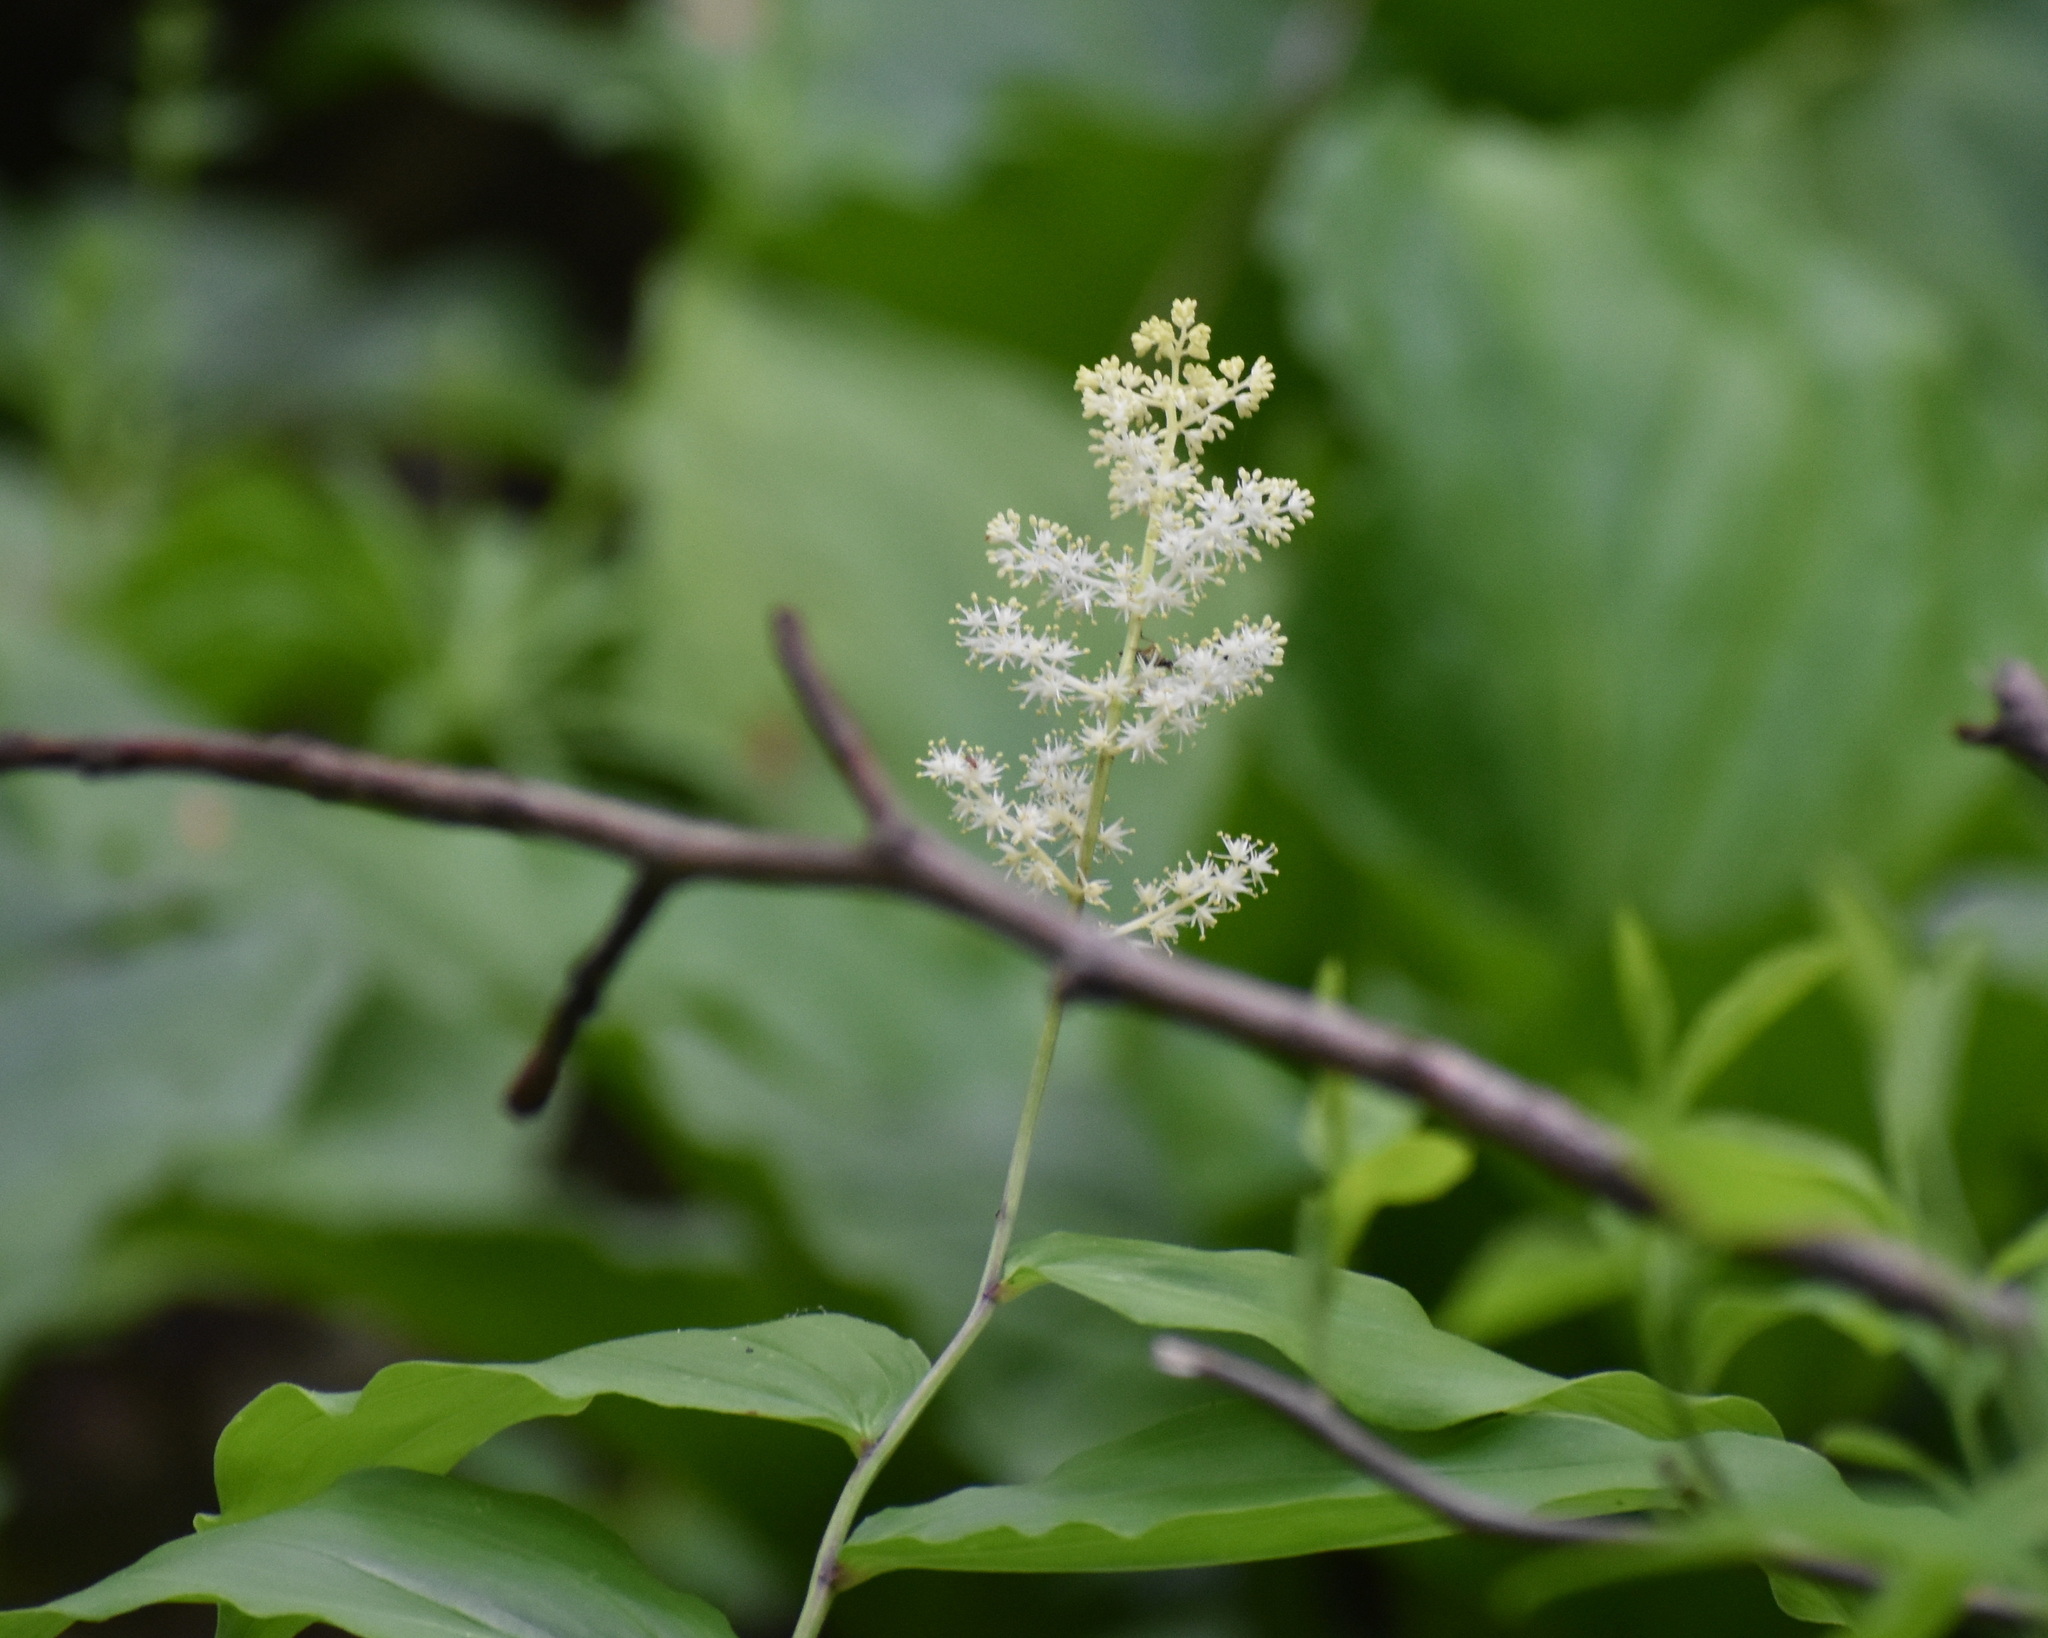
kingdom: Plantae
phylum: Tracheophyta
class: Liliopsida
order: Asparagales
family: Asparagaceae
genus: Maianthemum
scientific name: Maianthemum racemosum
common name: False spikenard
